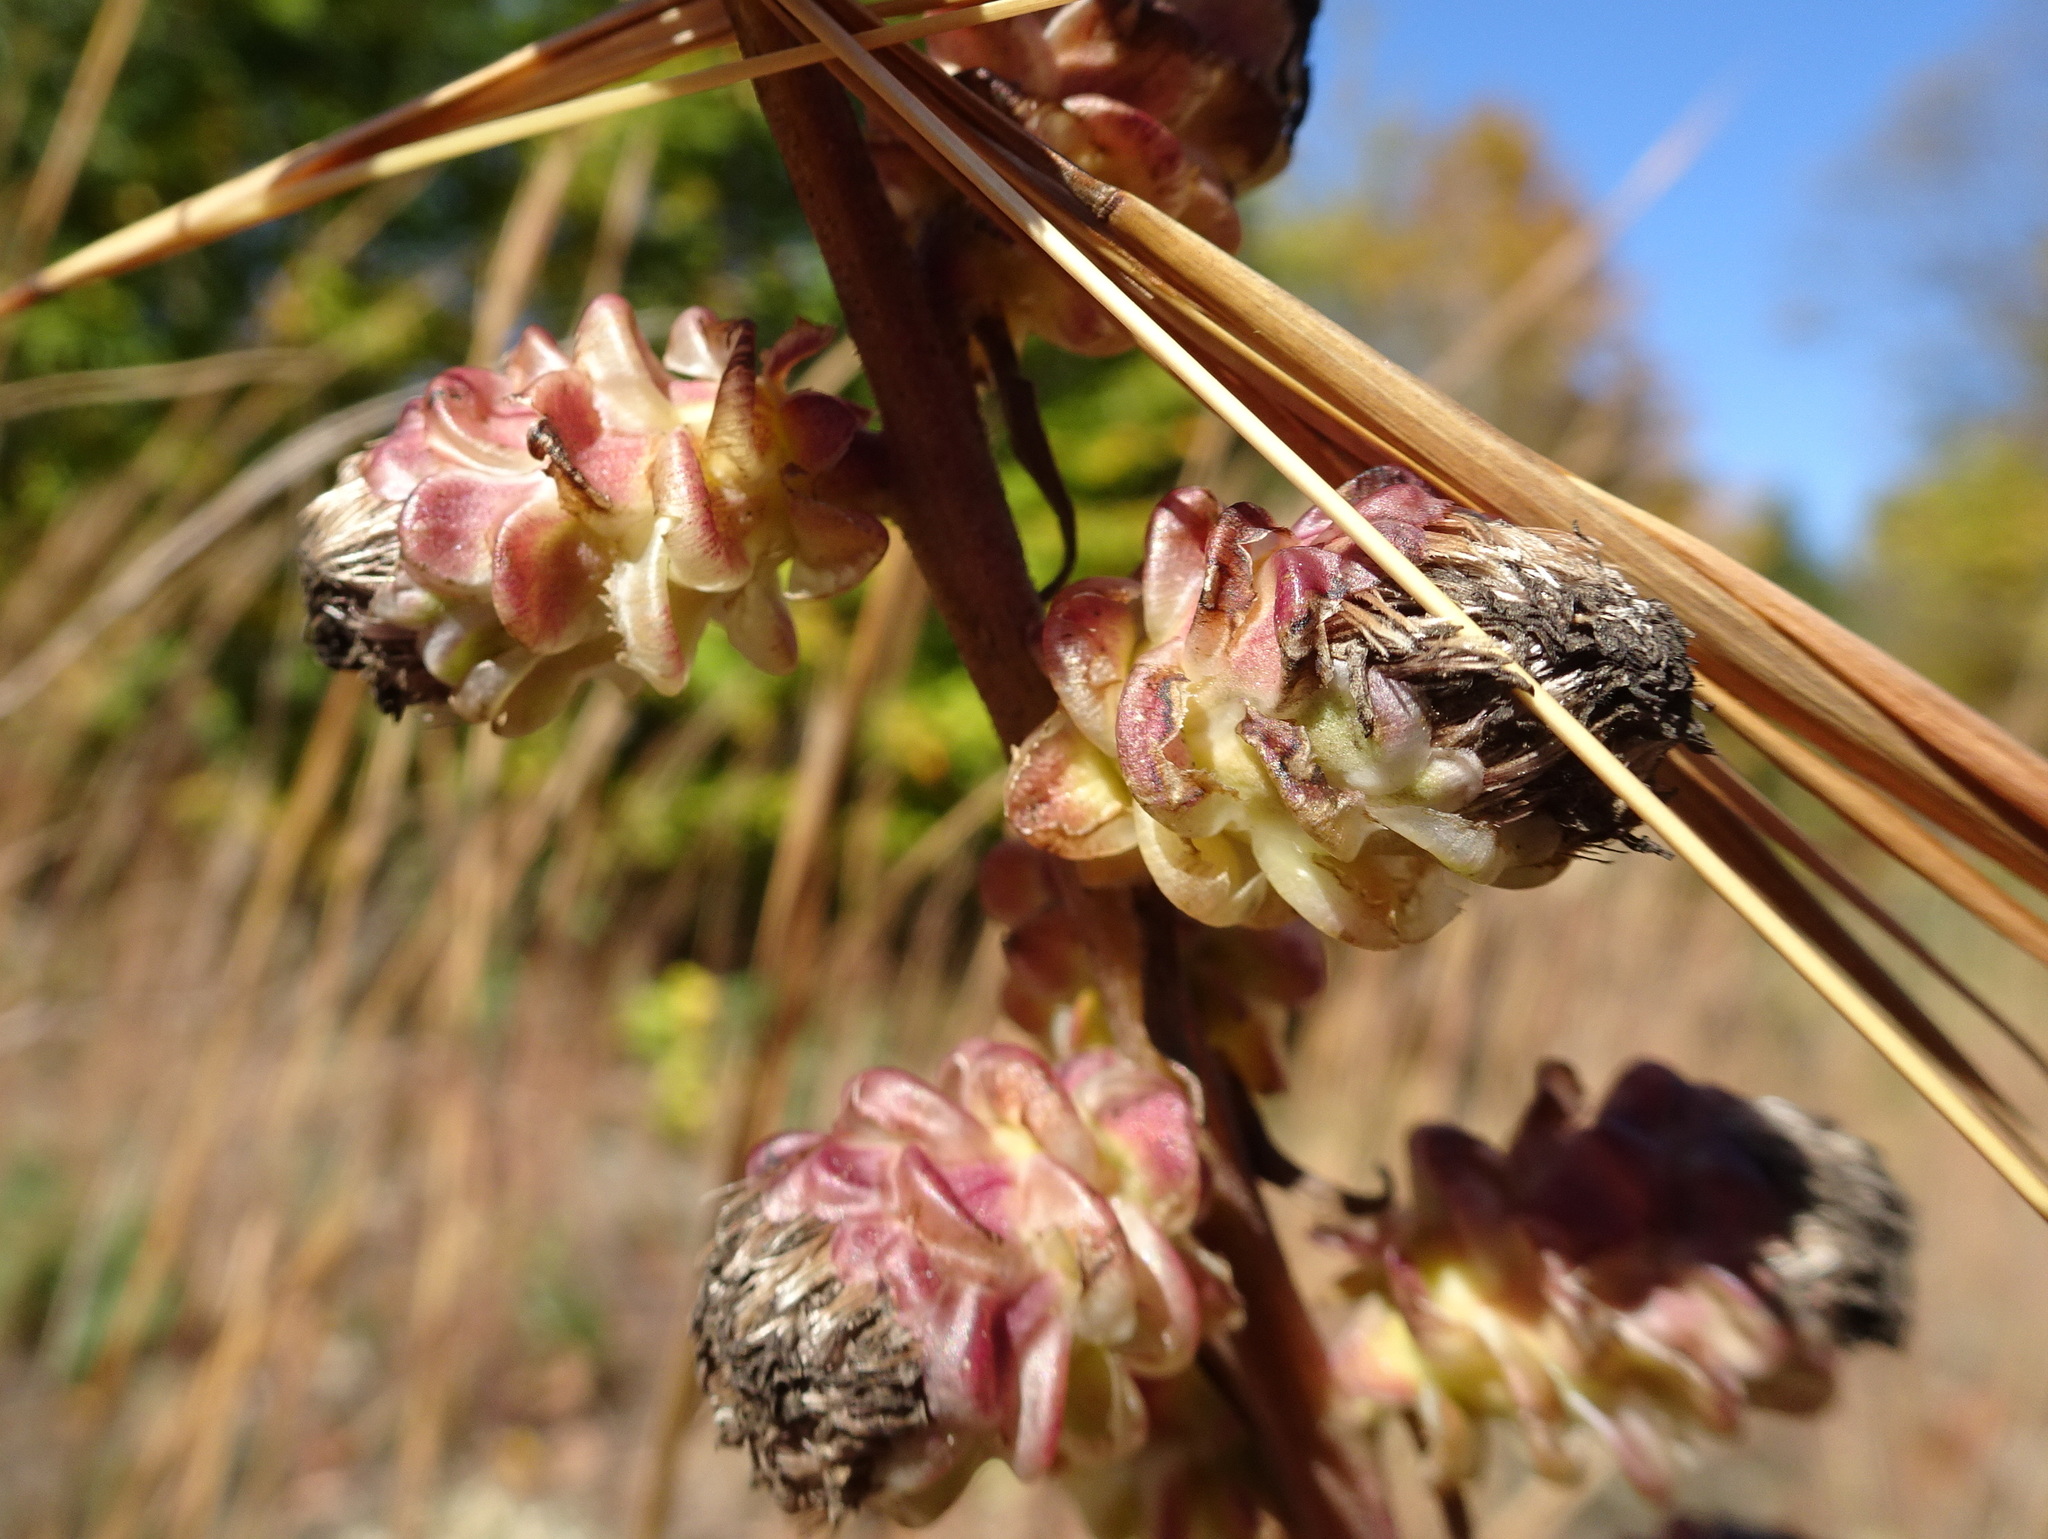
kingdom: Plantae
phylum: Tracheophyta
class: Magnoliopsida
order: Asterales
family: Asteraceae
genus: Liatris
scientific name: Liatris aspera
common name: Lacerate blazing-star
